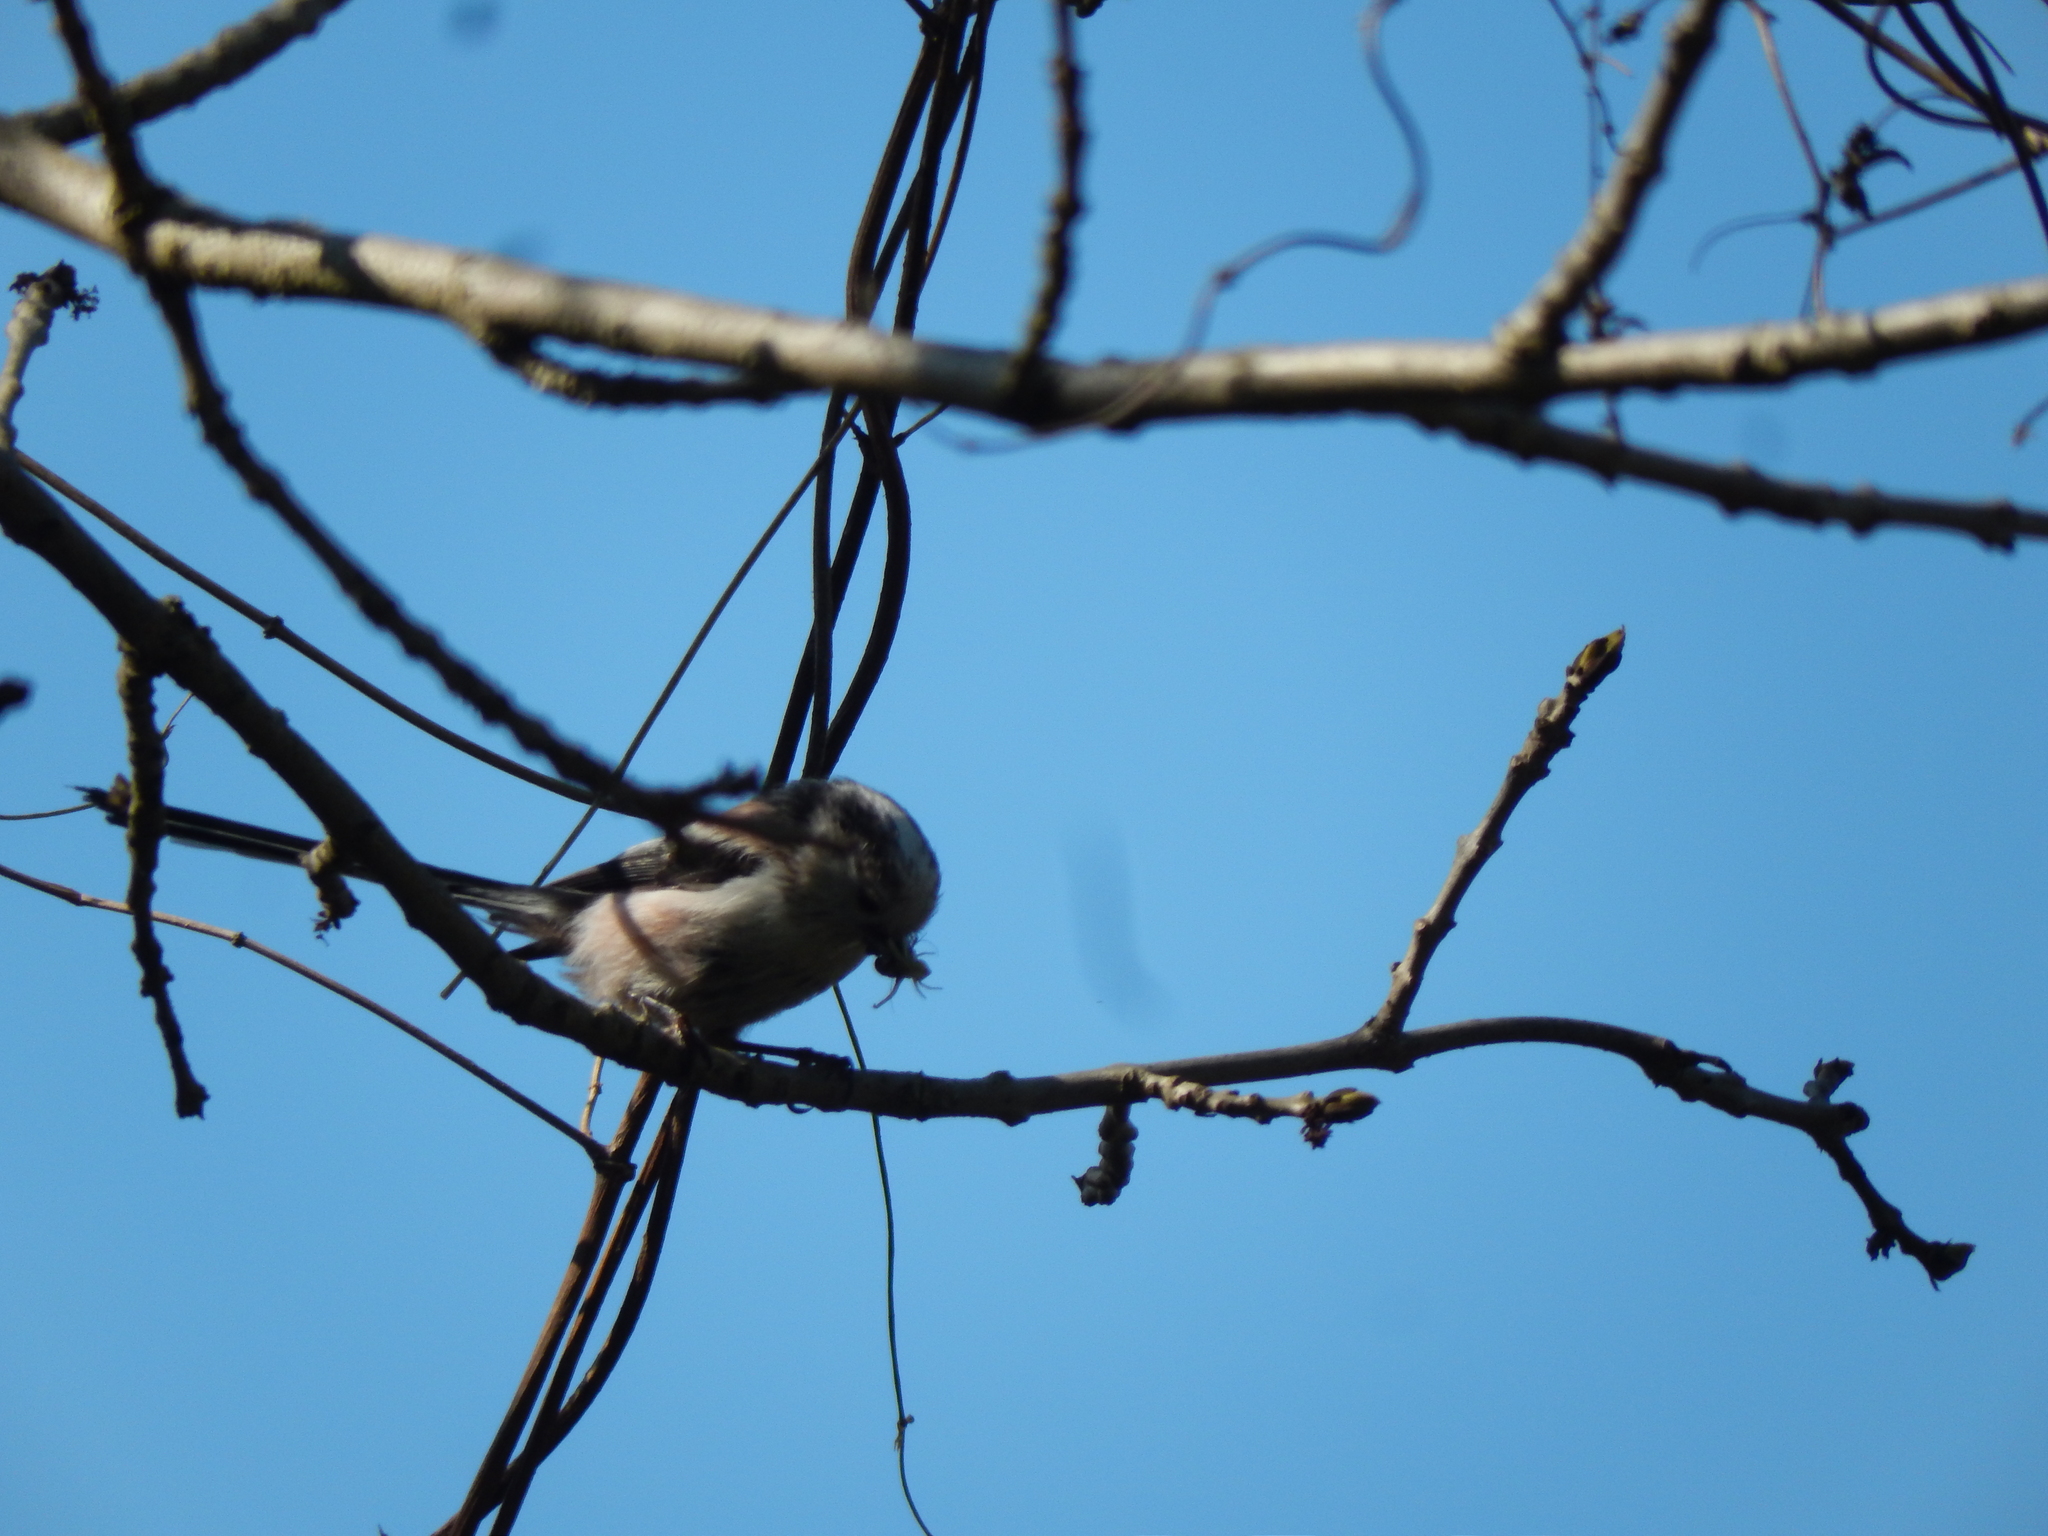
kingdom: Animalia
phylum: Chordata
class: Aves
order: Passeriformes
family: Aegithalidae
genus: Aegithalos
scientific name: Aegithalos caudatus
